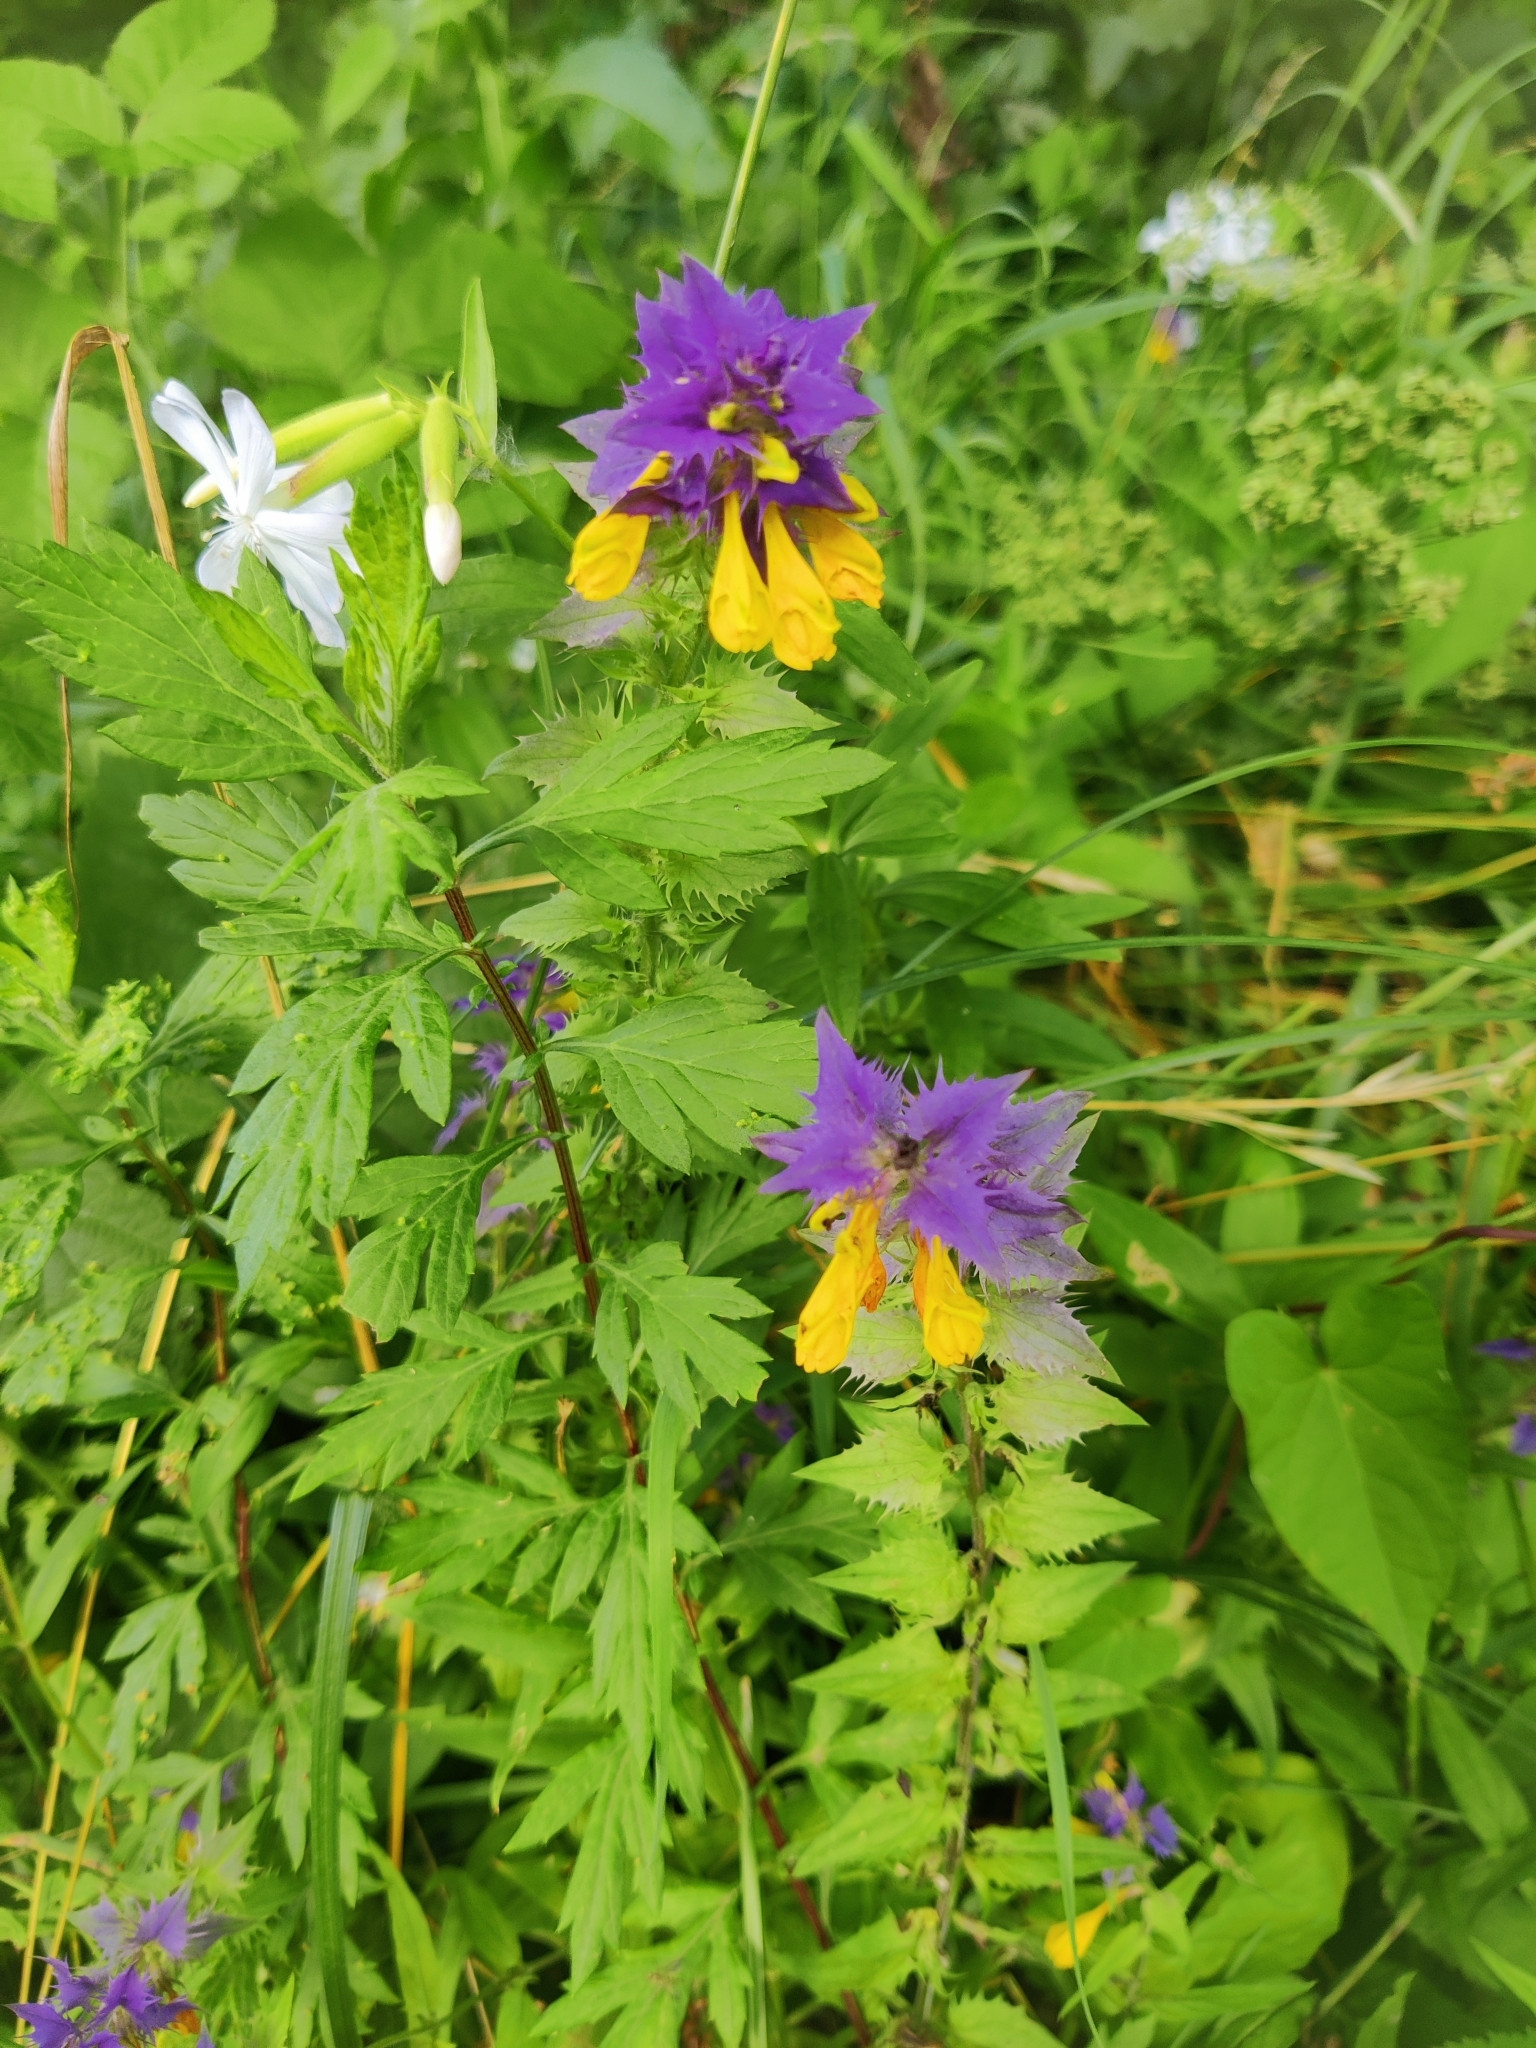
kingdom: Plantae
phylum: Tracheophyta
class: Magnoliopsida
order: Lamiales
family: Orobanchaceae
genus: Melampyrum
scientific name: Melampyrum nemorosum
